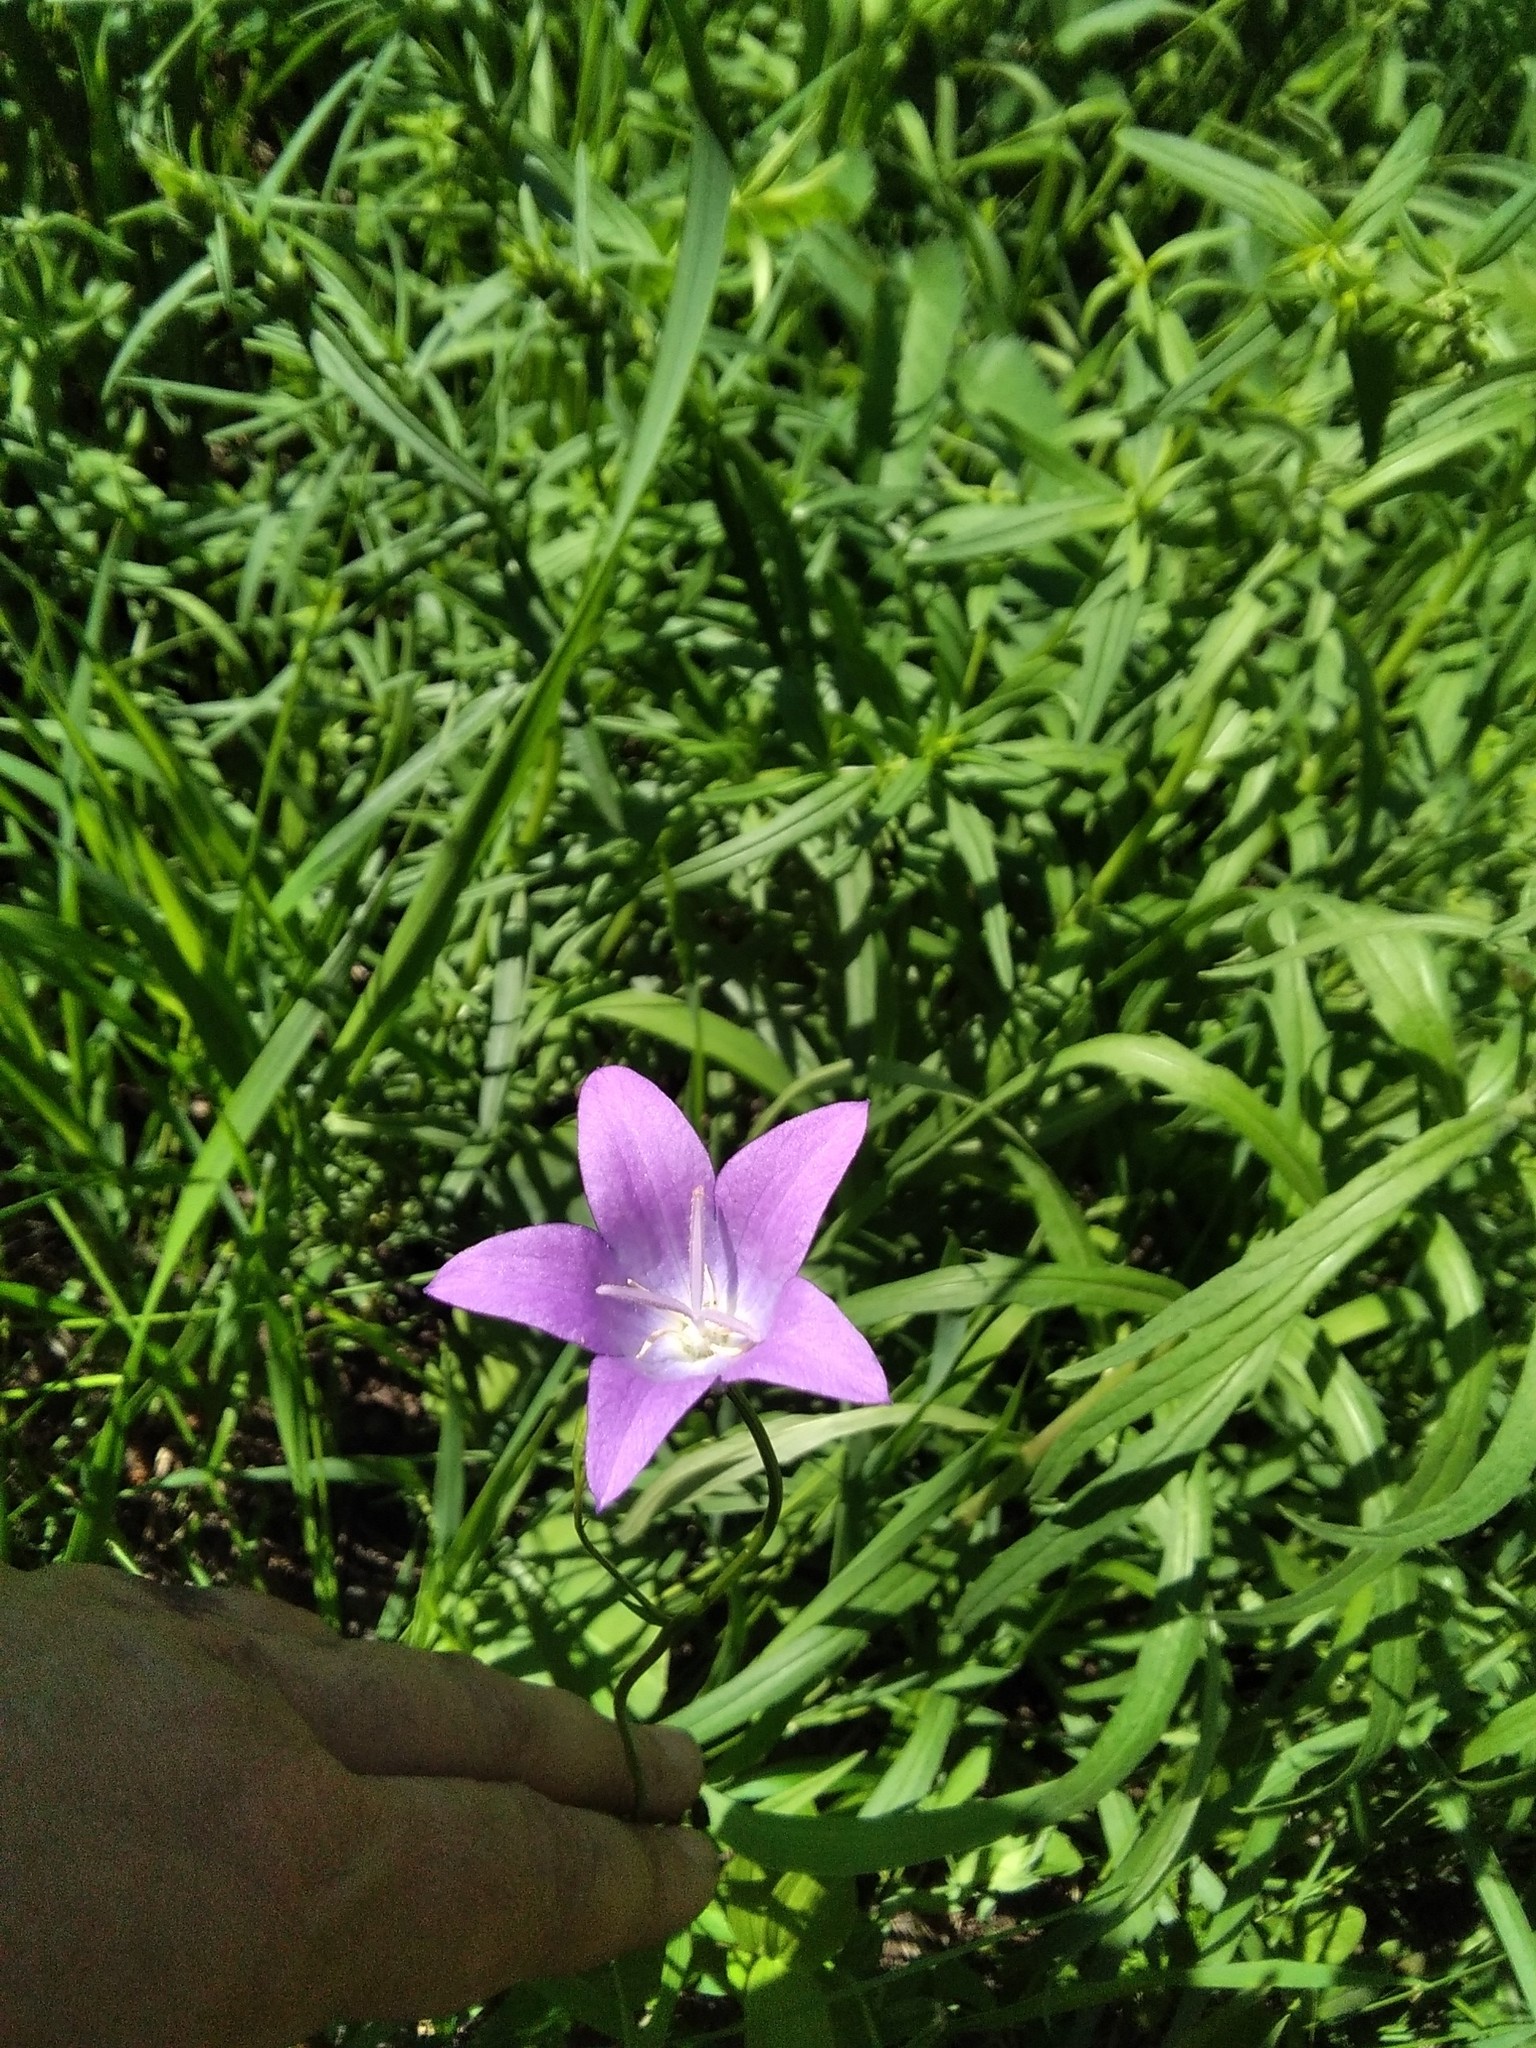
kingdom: Plantae
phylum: Tracheophyta
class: Magnoliopsida
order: Asterales
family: Campanulaceae
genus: Campanula
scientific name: Campanula stevenii
